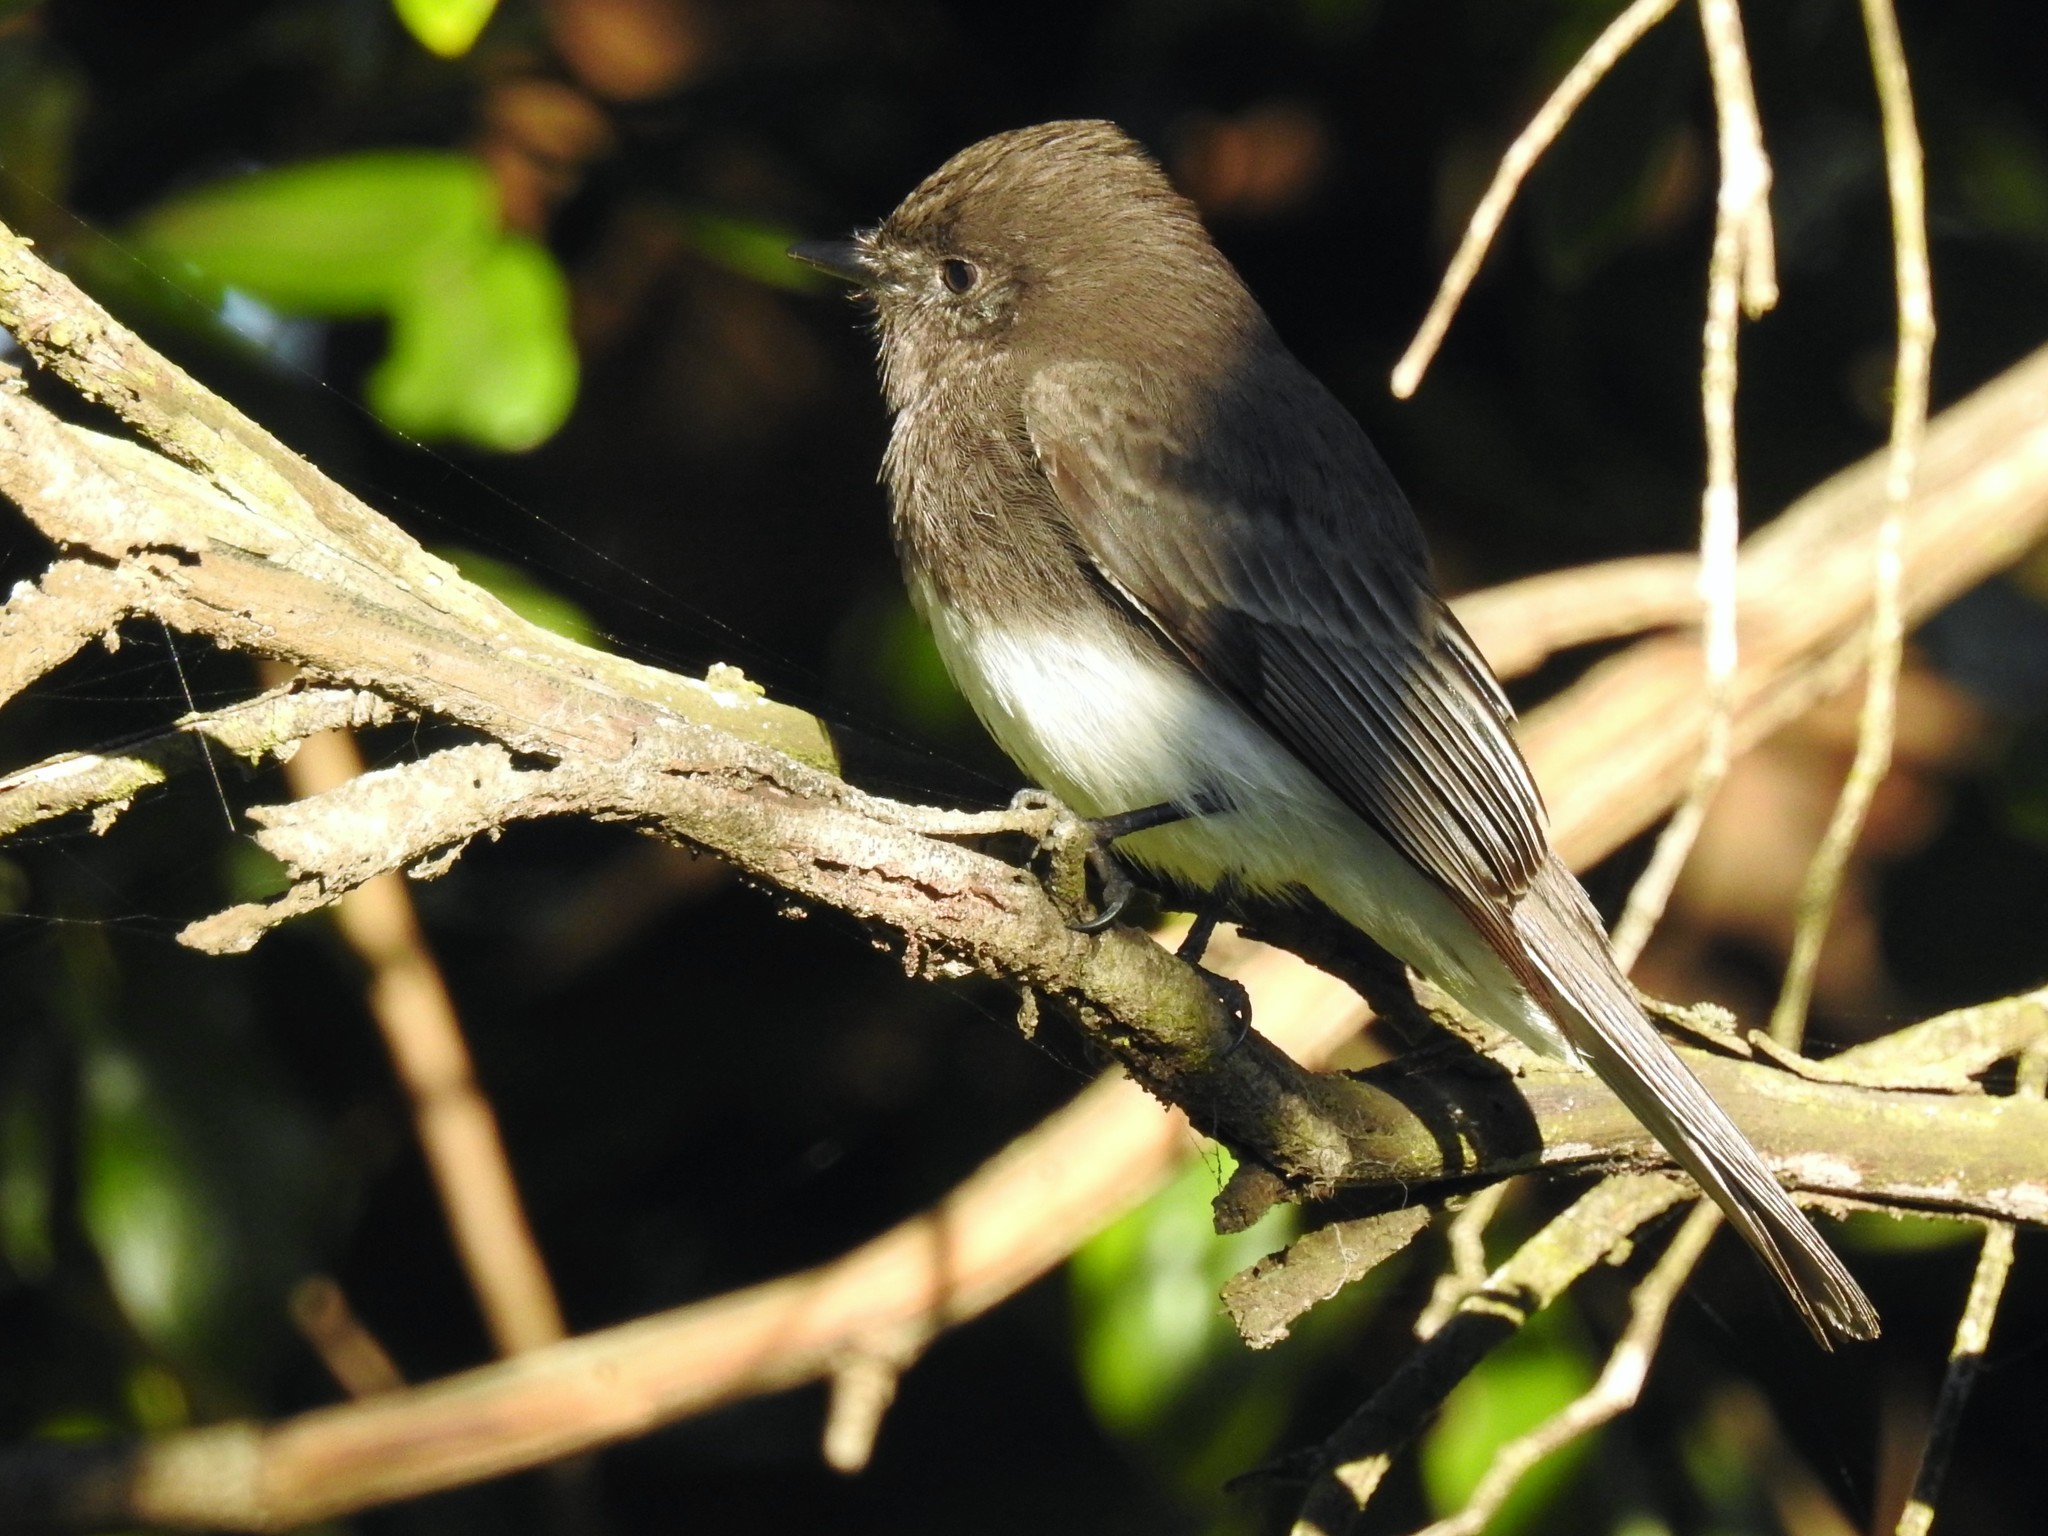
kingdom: Animalia
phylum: Chordata
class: Aves
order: Passeriformes
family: Tyrannidae
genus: Sayornis
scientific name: Sayornis nigricans
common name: Black phoebe
